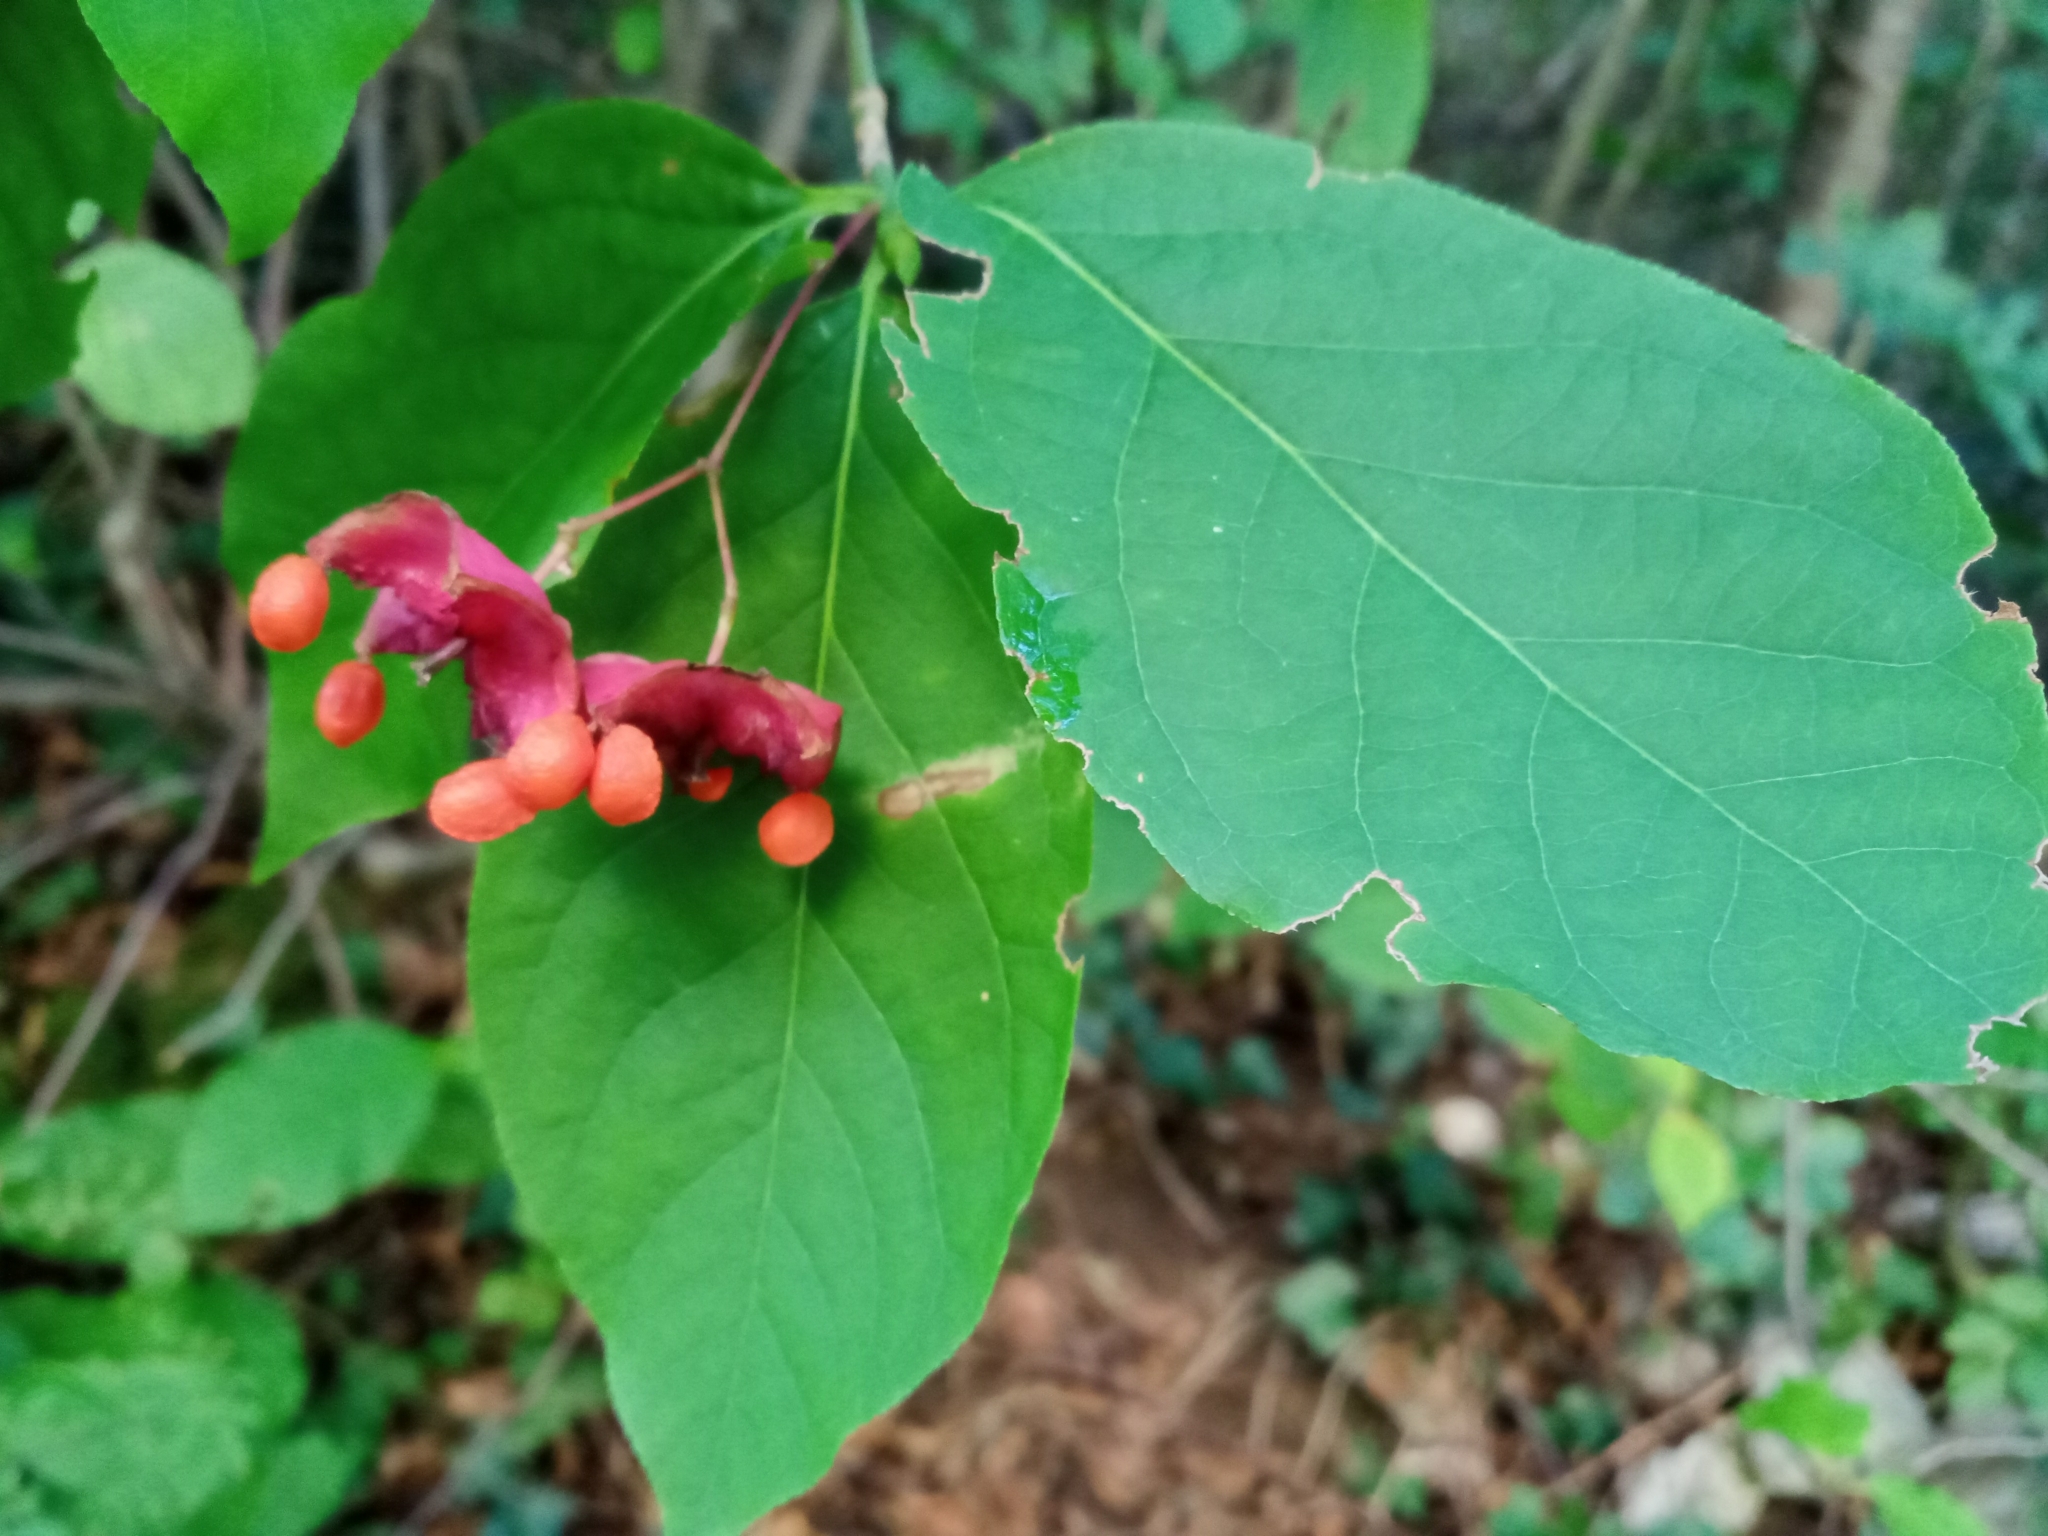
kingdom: Plantae
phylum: Tracheophyta
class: Magnoliopsida
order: Celastrales
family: Celastraceae
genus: Euonymus
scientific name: Euonymus latifolius
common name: Large-leaved spindle
